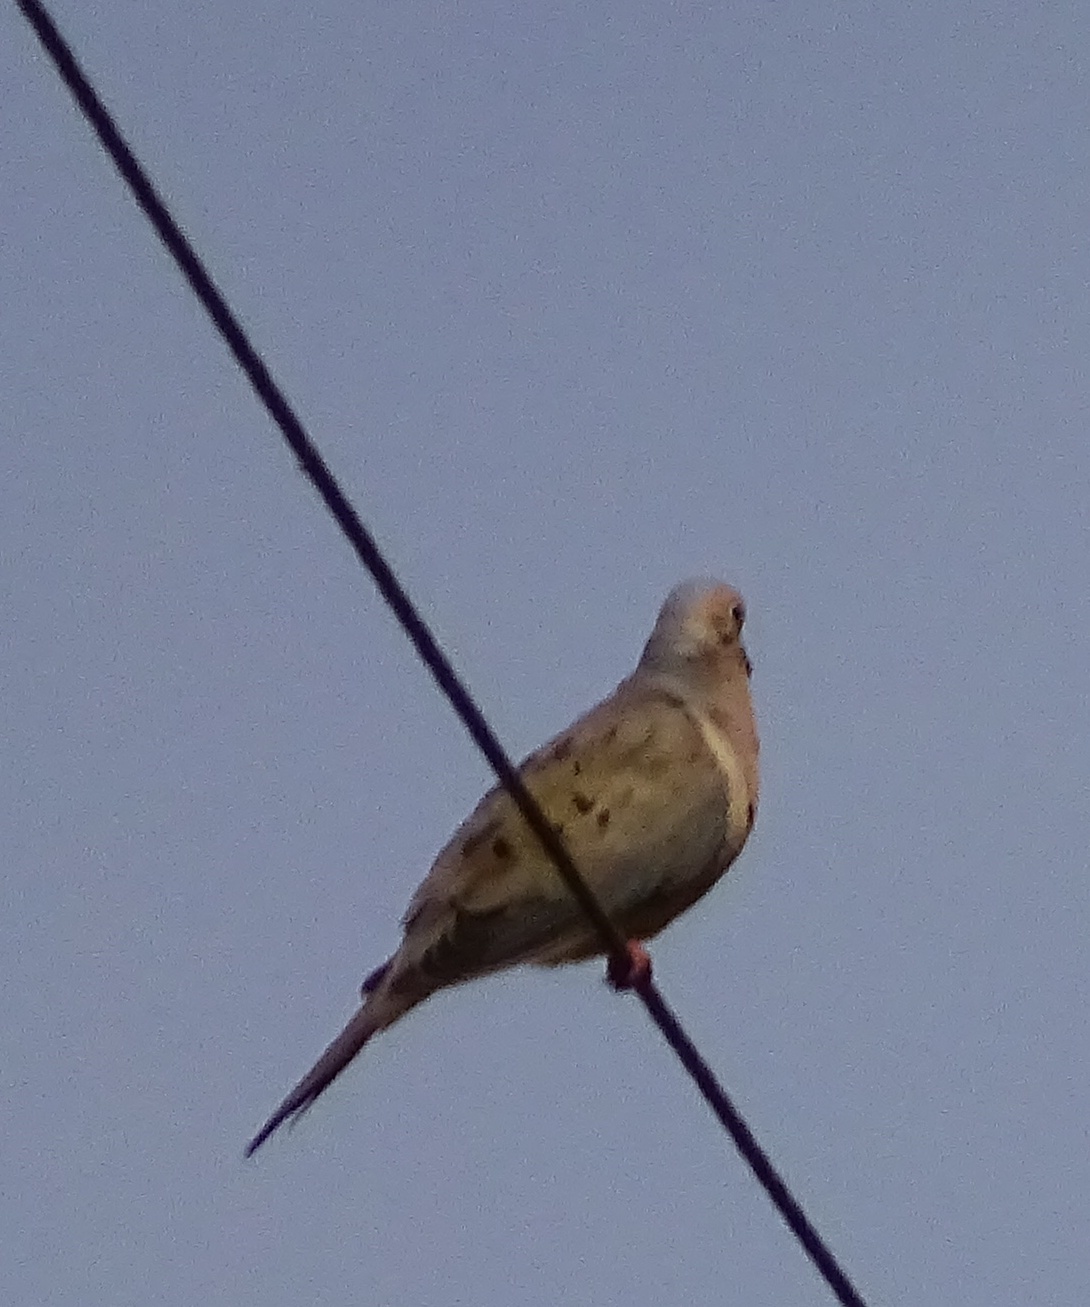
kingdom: Animalia
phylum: Chordata
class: Aves
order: Columbiformes
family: Columbidae
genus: Zenaida
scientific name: Zenaida macroura
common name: Mourning dove
